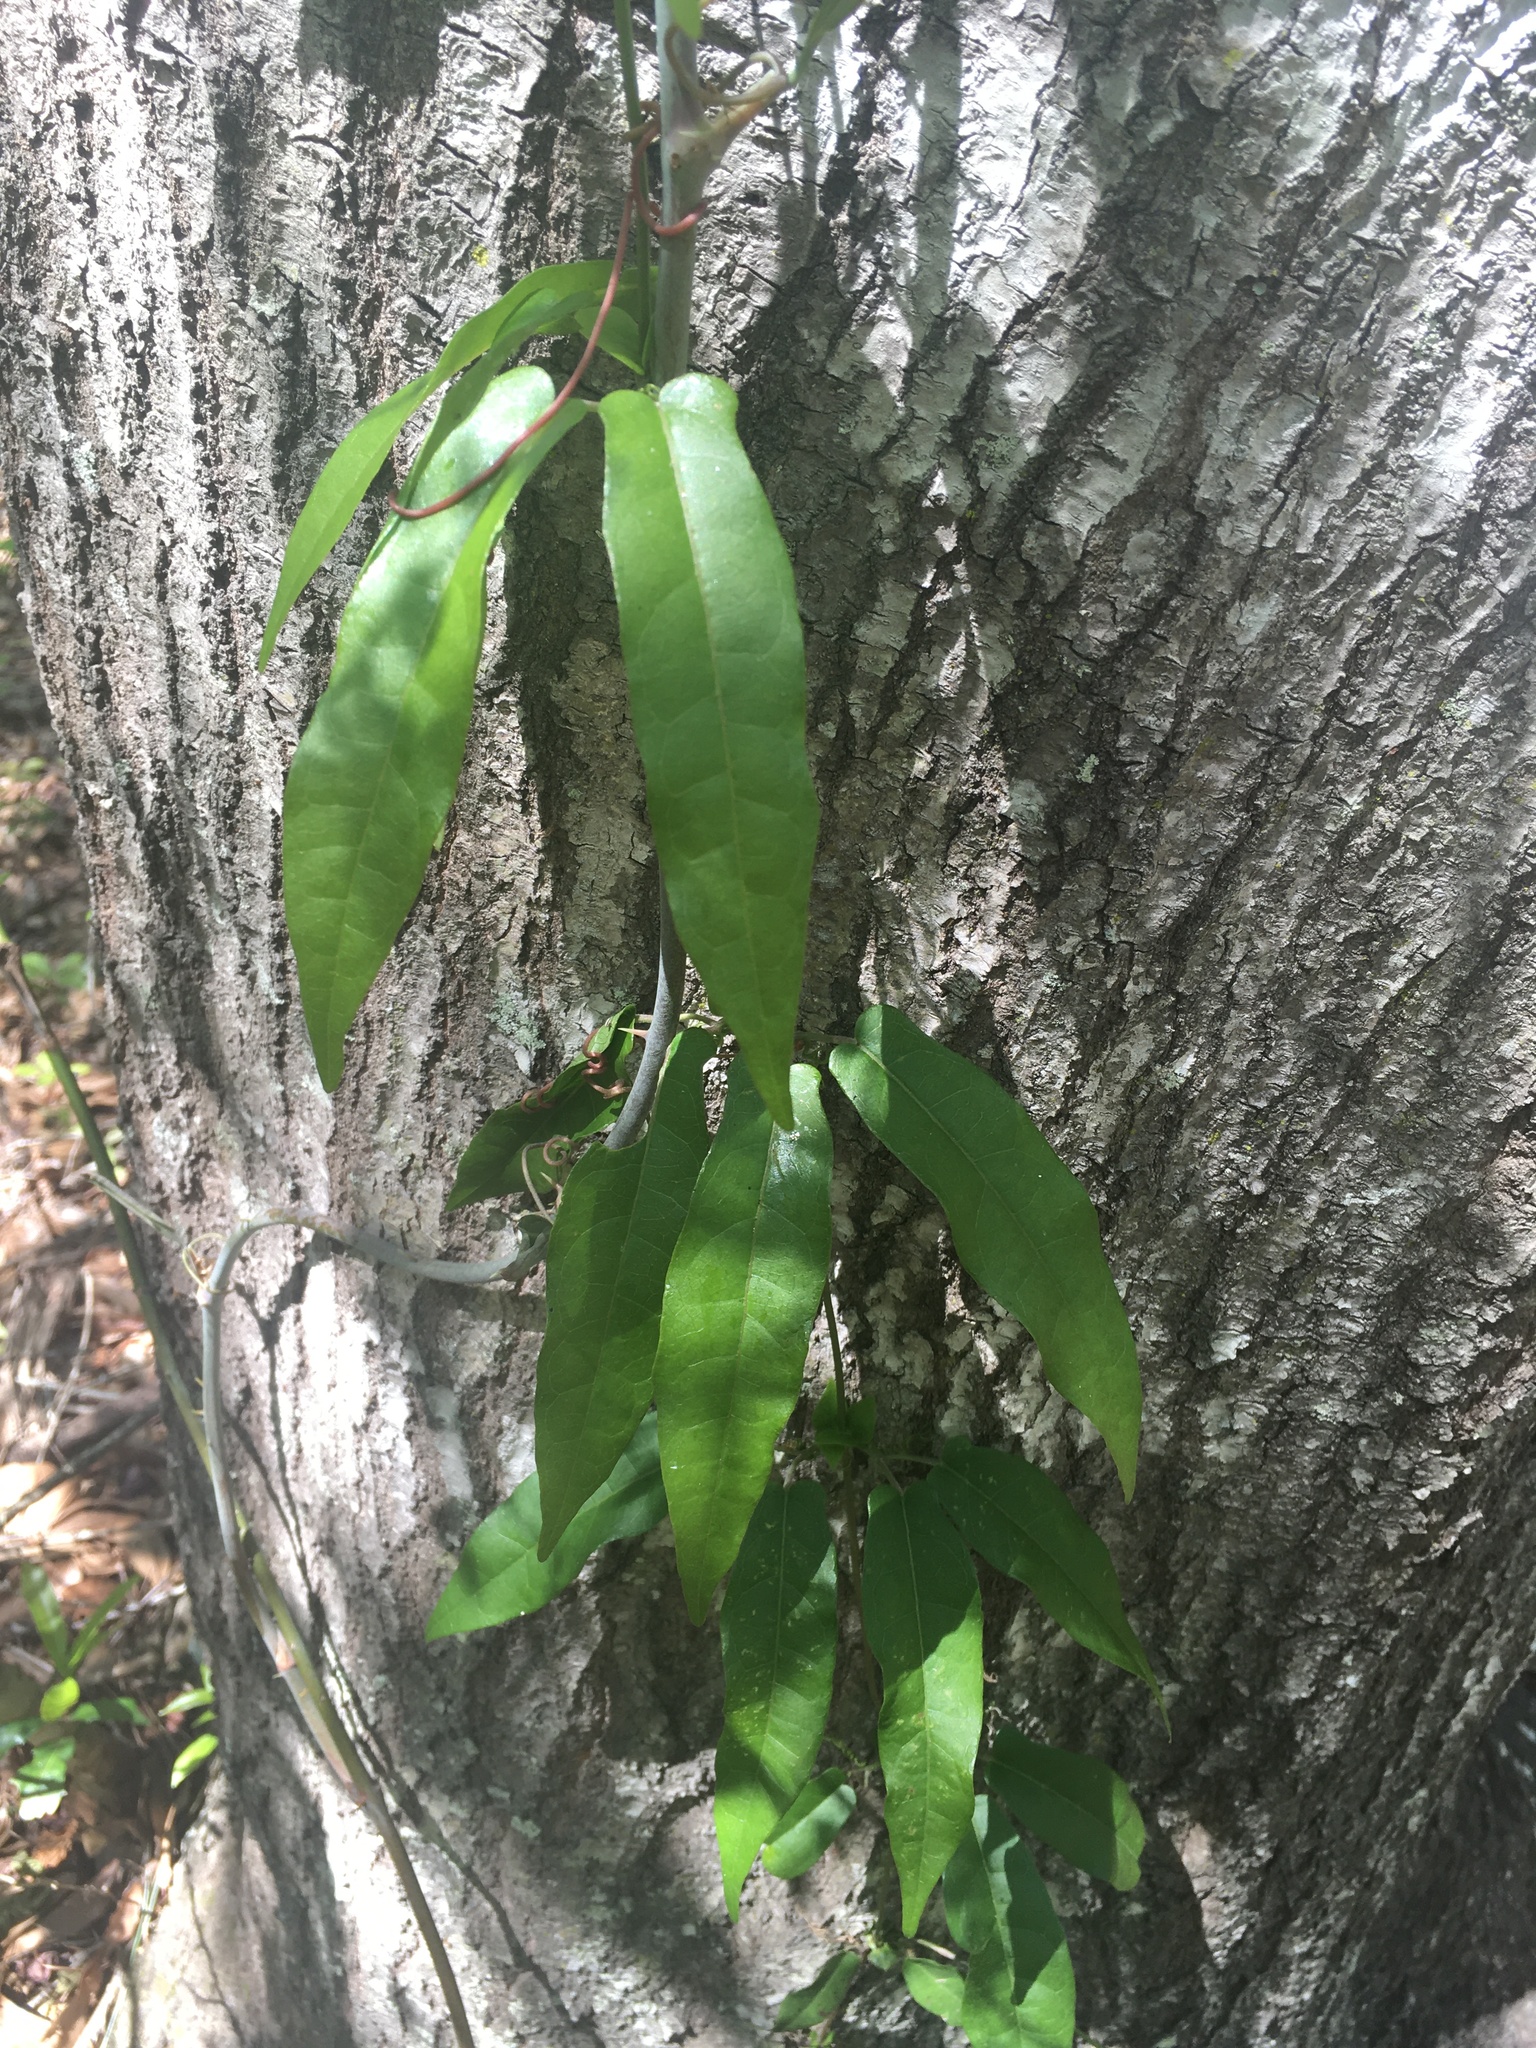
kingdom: Plantae
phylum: Tracheophyta
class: Magnoliopsida
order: Lamiales
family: Bignoniaceae
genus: Bignonia
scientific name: Bignonia capreolata
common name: Crossvine
